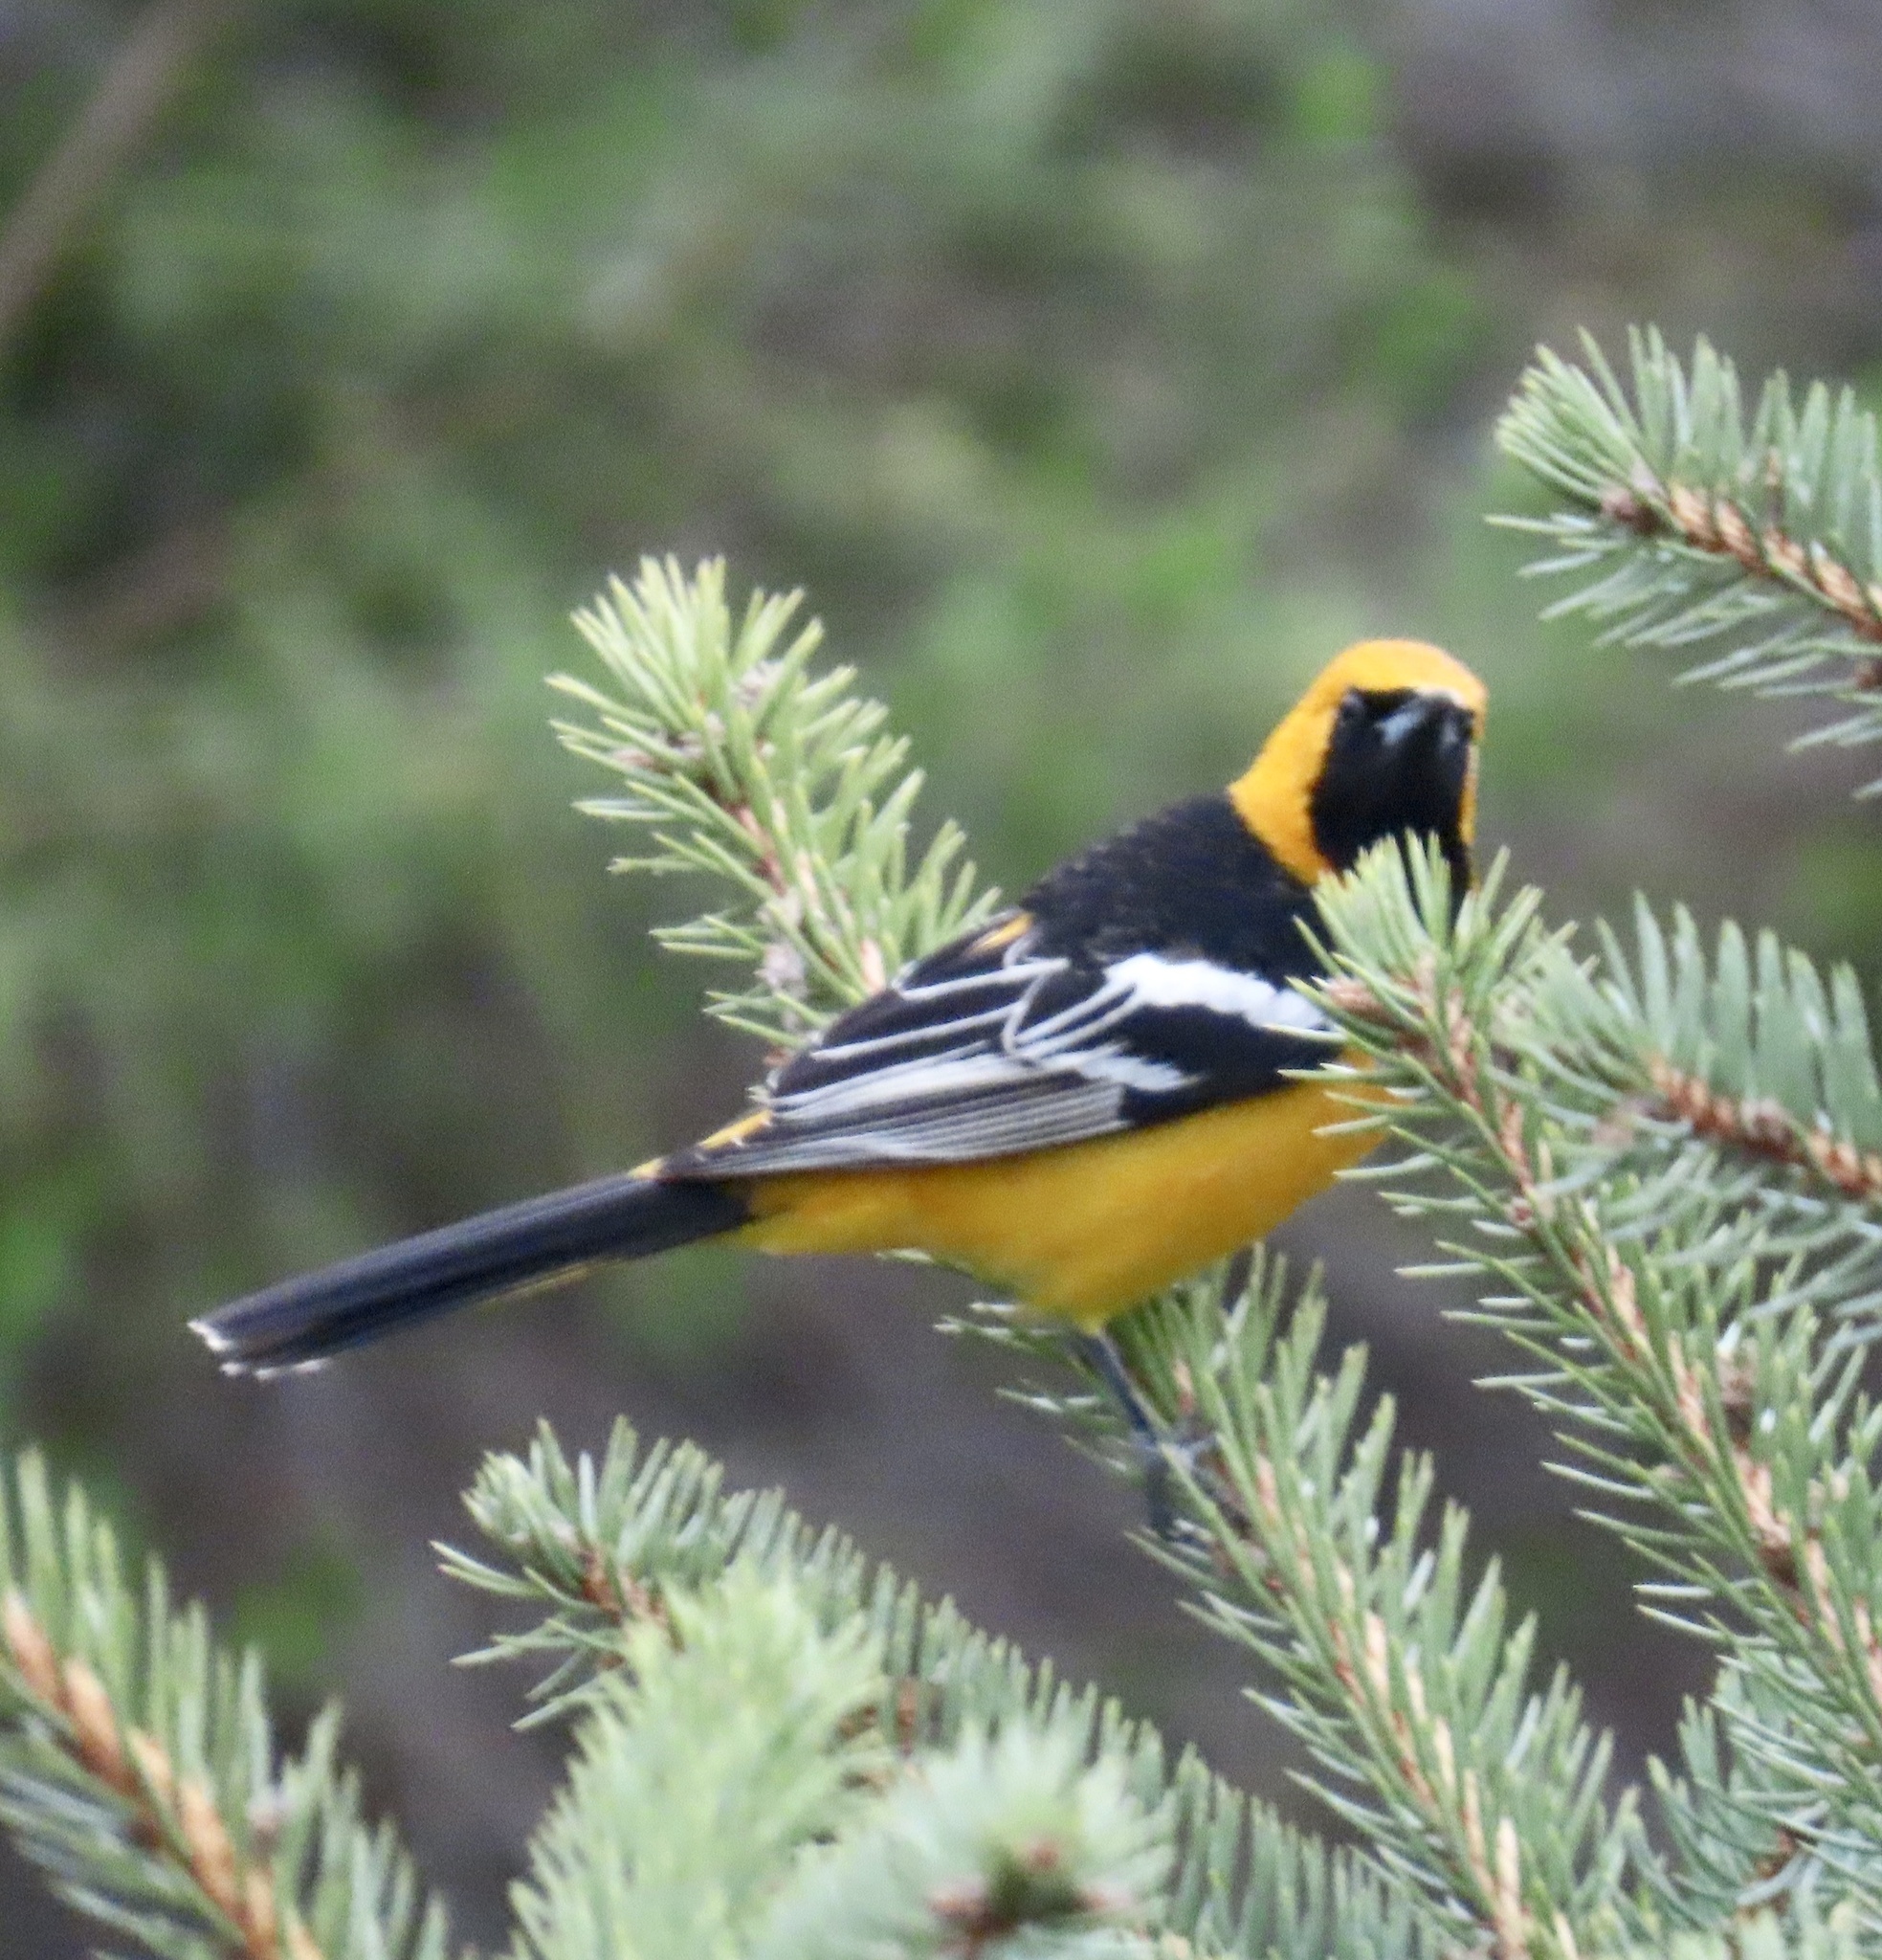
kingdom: Animalia
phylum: Chordata
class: Aves
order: Passeriformes
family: Icteridae
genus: Icterus
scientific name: Icterus cucullatus
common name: Hooded oriole
